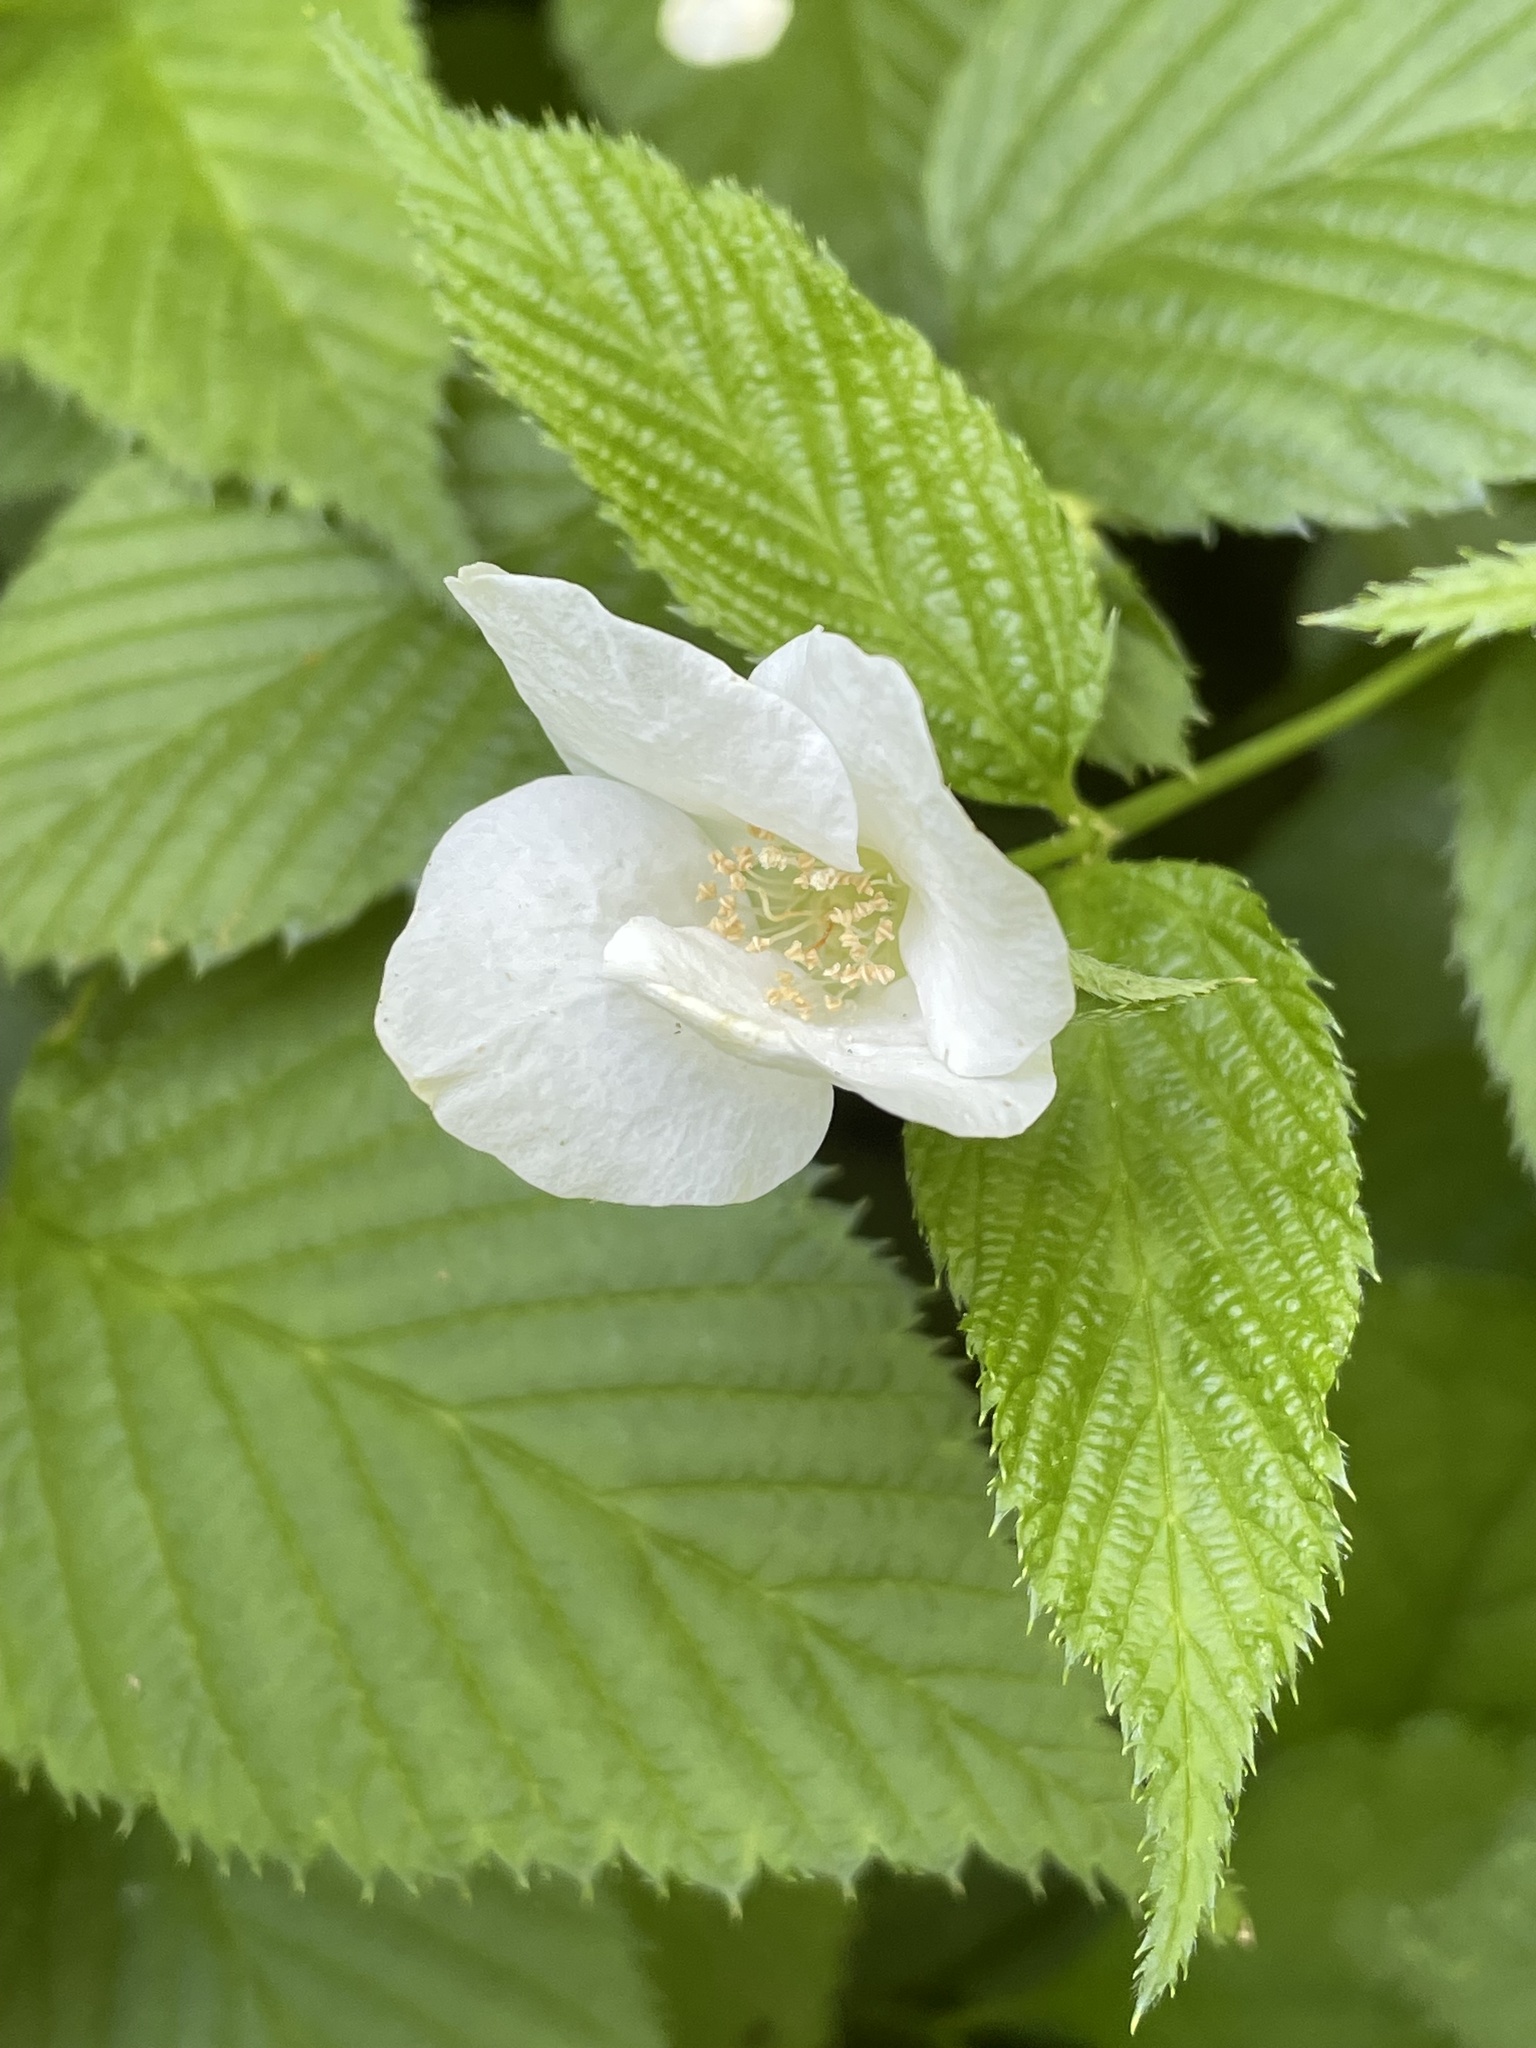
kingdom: Plantae
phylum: Tracheophyta
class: Magnoliopsida
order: Rosales
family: Rosaceae
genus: Rhodotypos
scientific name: Rhodotypos scandens
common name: Jetbead
